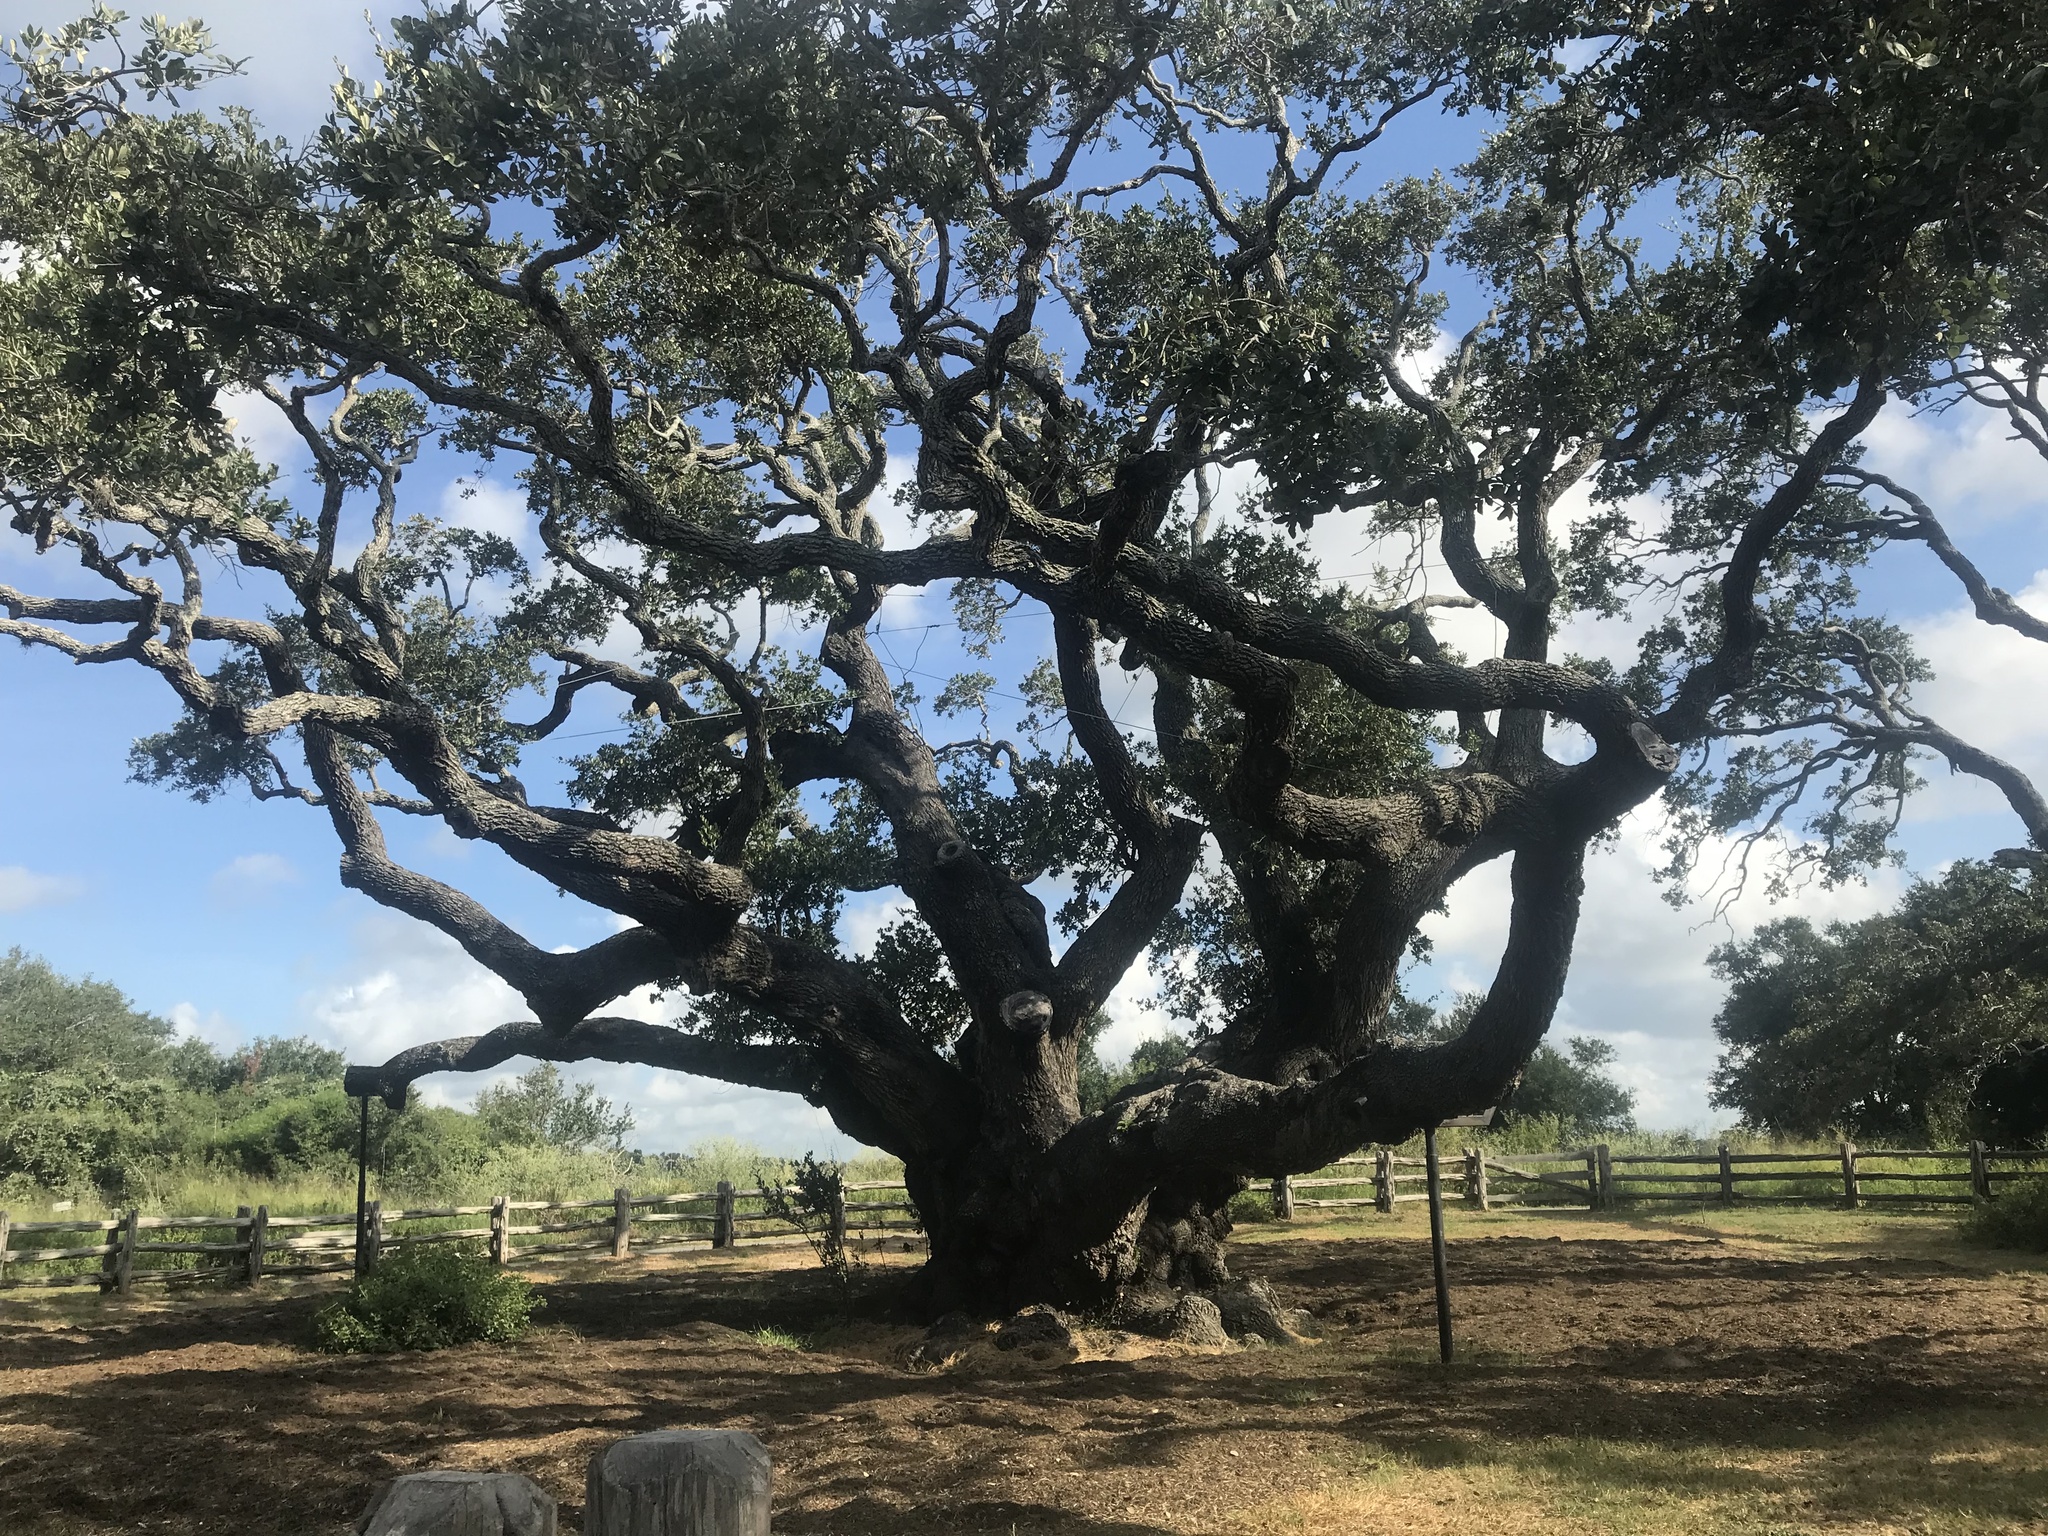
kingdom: Plantae
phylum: Tracheophyta
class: Magnoliopsida
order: Fagales
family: Fagaceae
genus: Quercus
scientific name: Quercus virginiana
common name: Southern live oak
